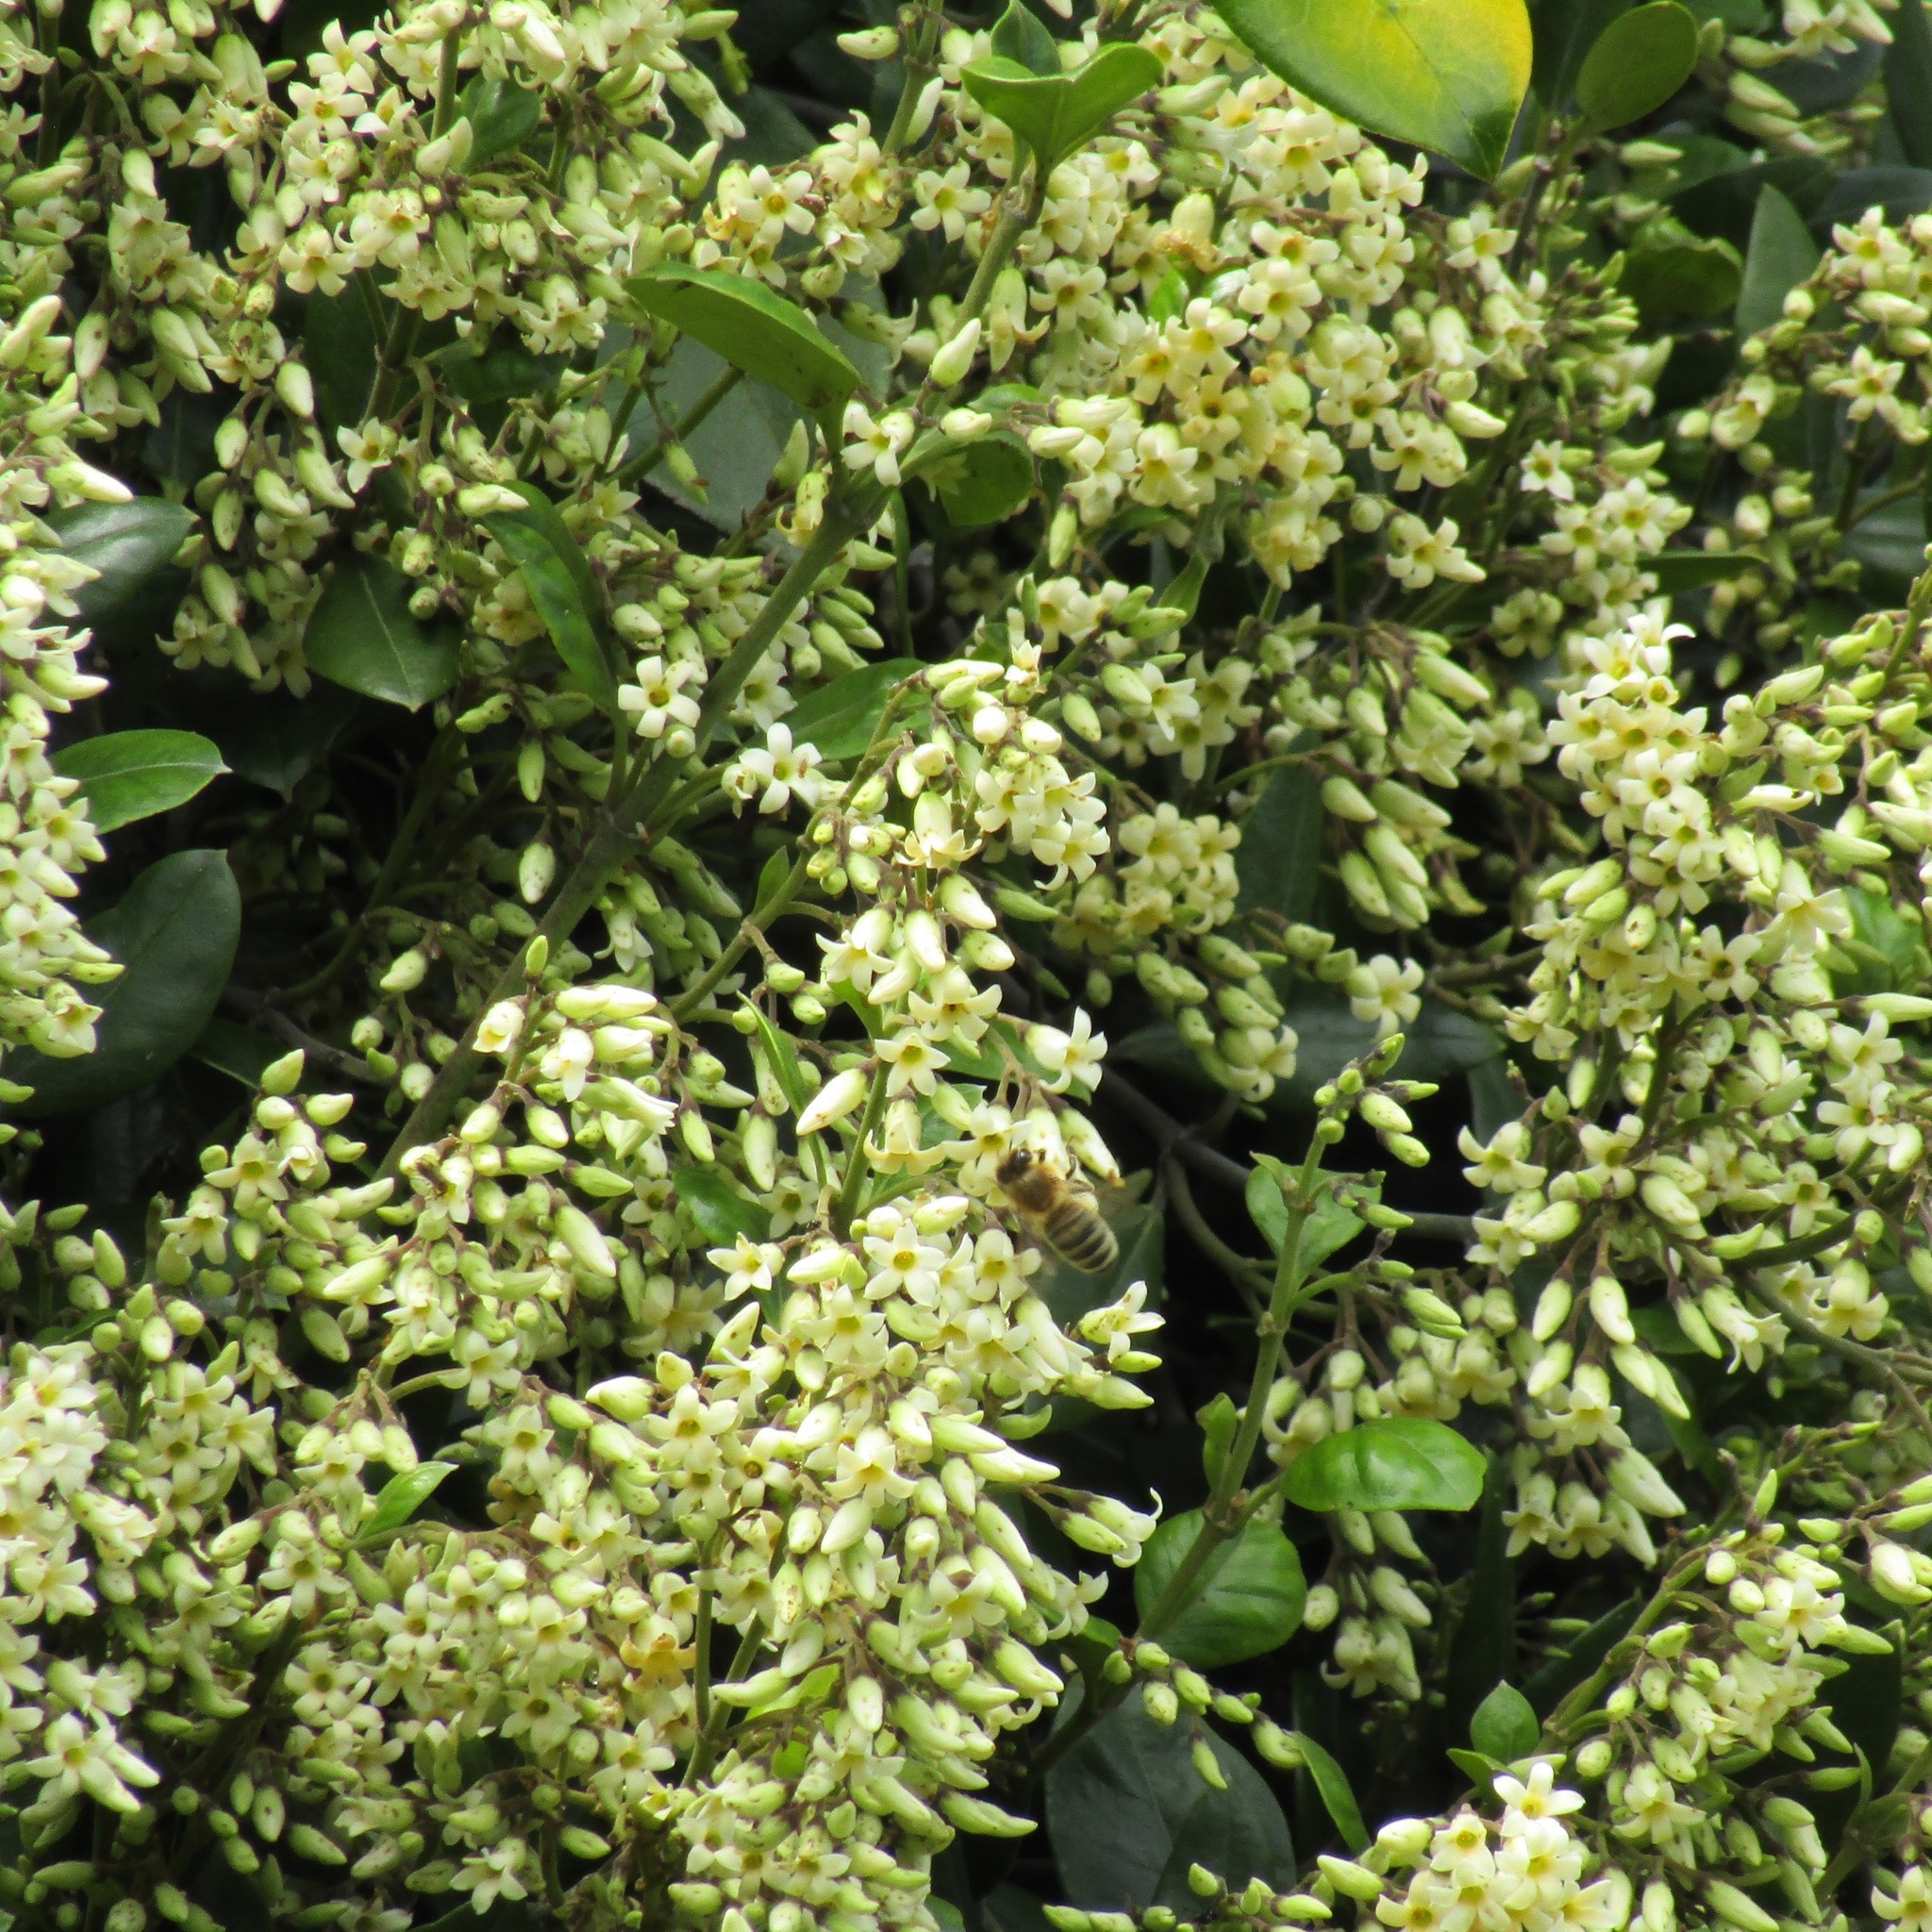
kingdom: Plantae
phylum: Tracheophyta
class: Magnoliopsida
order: Gentianales
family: Apocynaceae
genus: Parsonsia
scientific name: Parsonsia heterophylla
